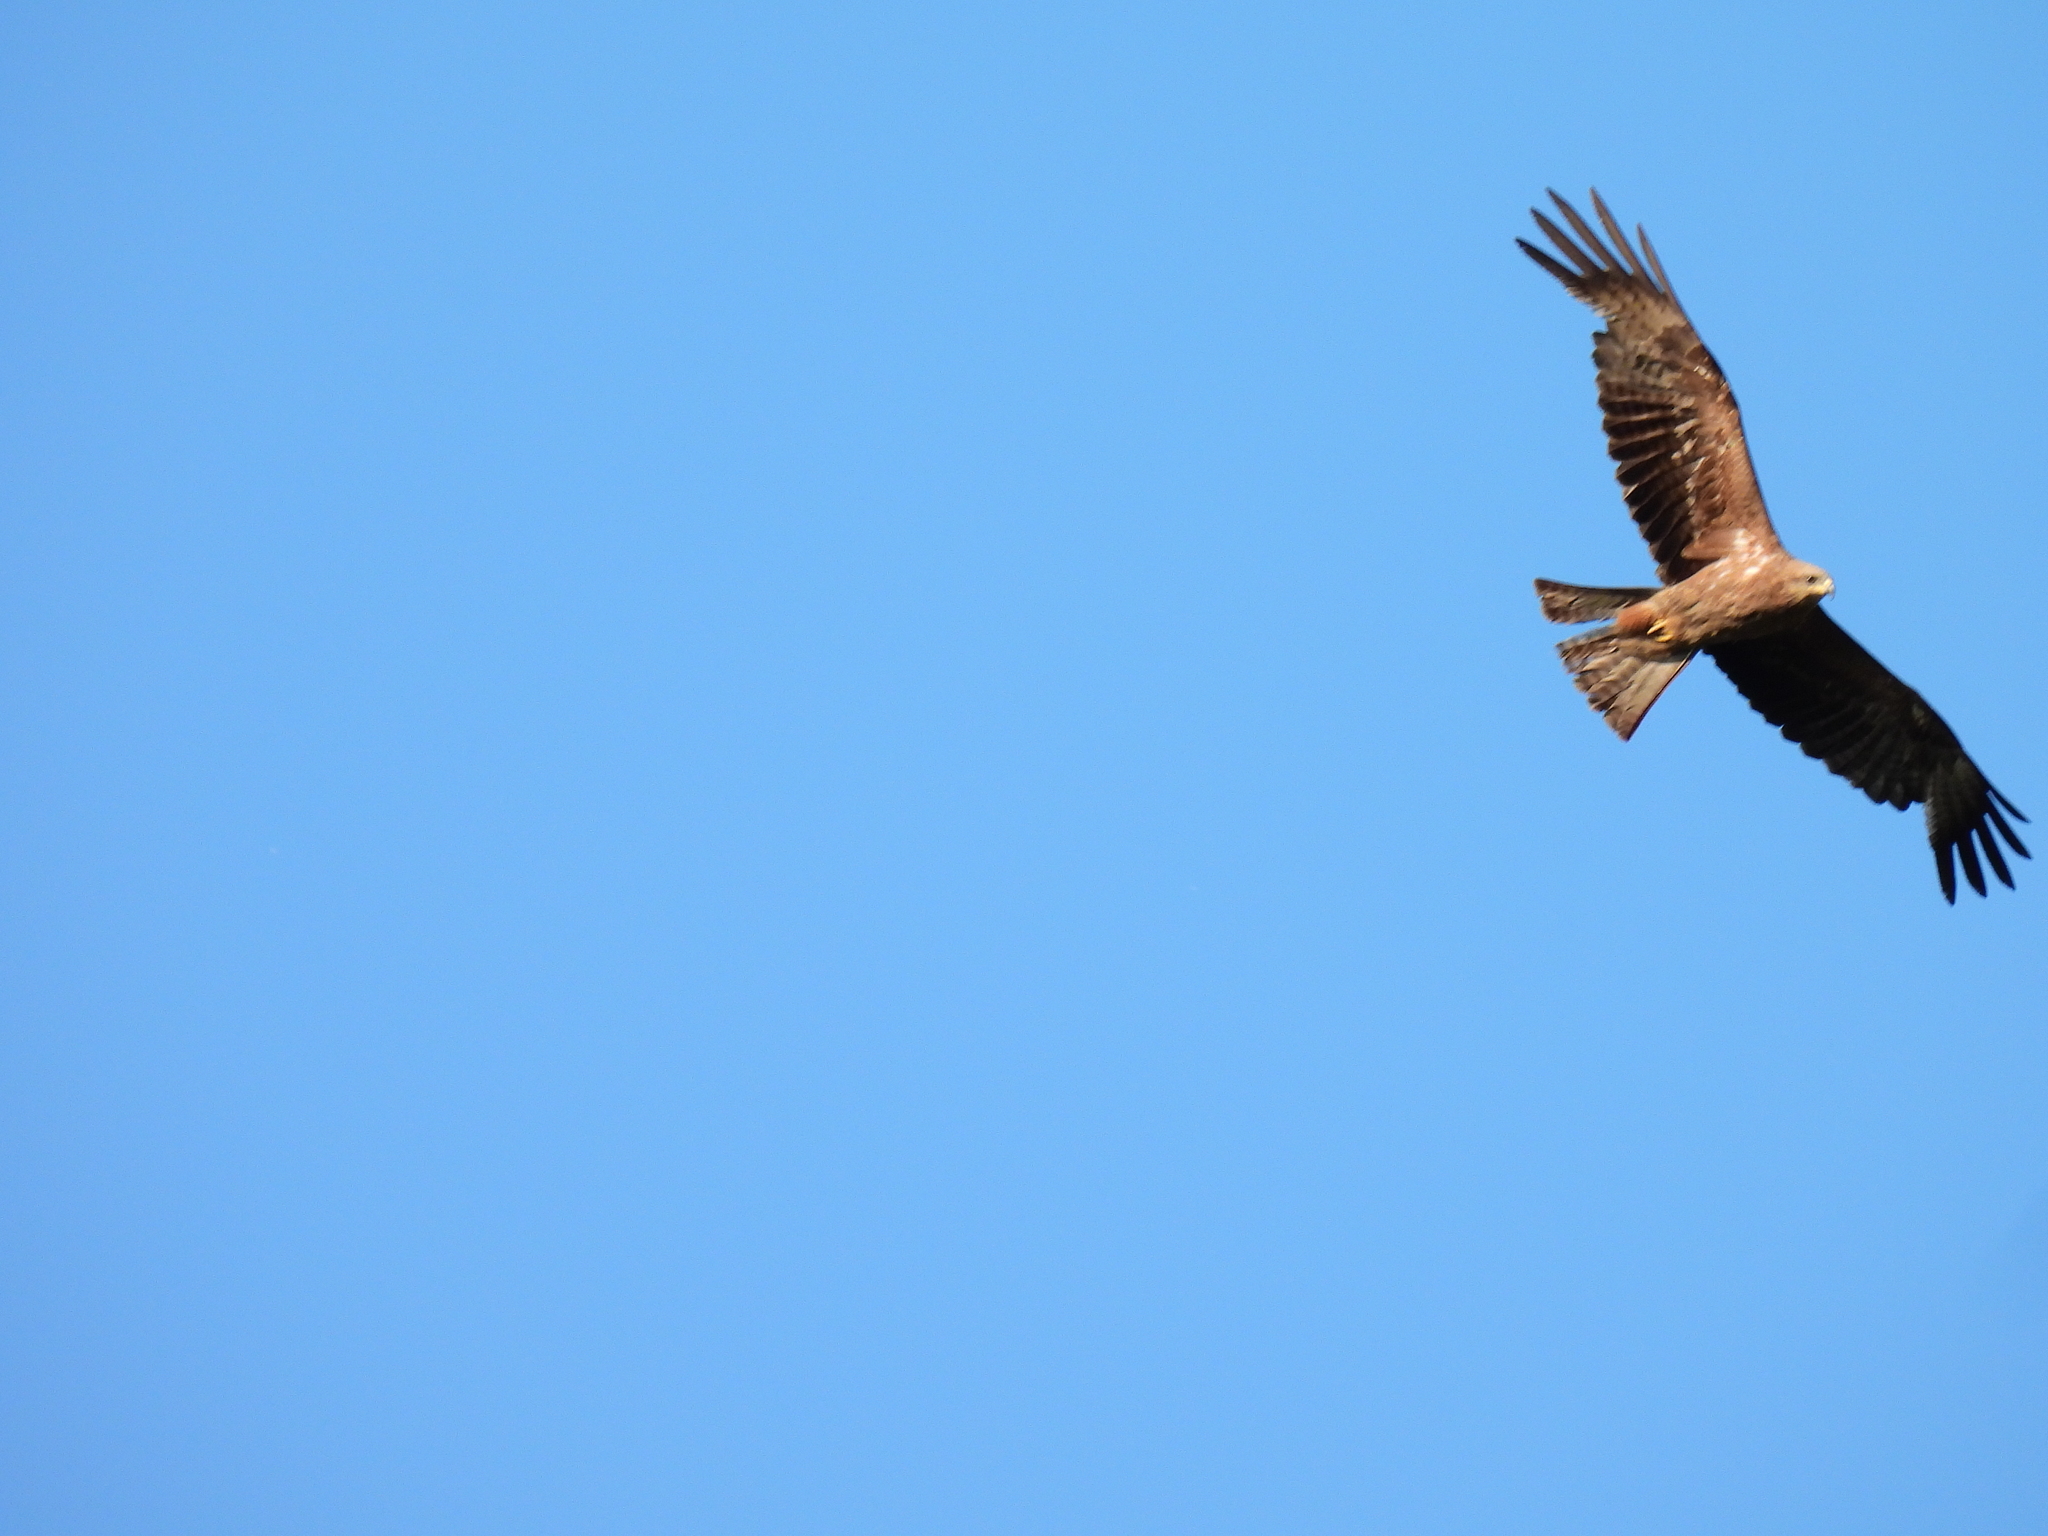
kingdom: Animalia
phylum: Chordata
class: Aves
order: Accipitriformes
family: Accipitridae
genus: Milvus
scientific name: Milvus migrans
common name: Black kite
